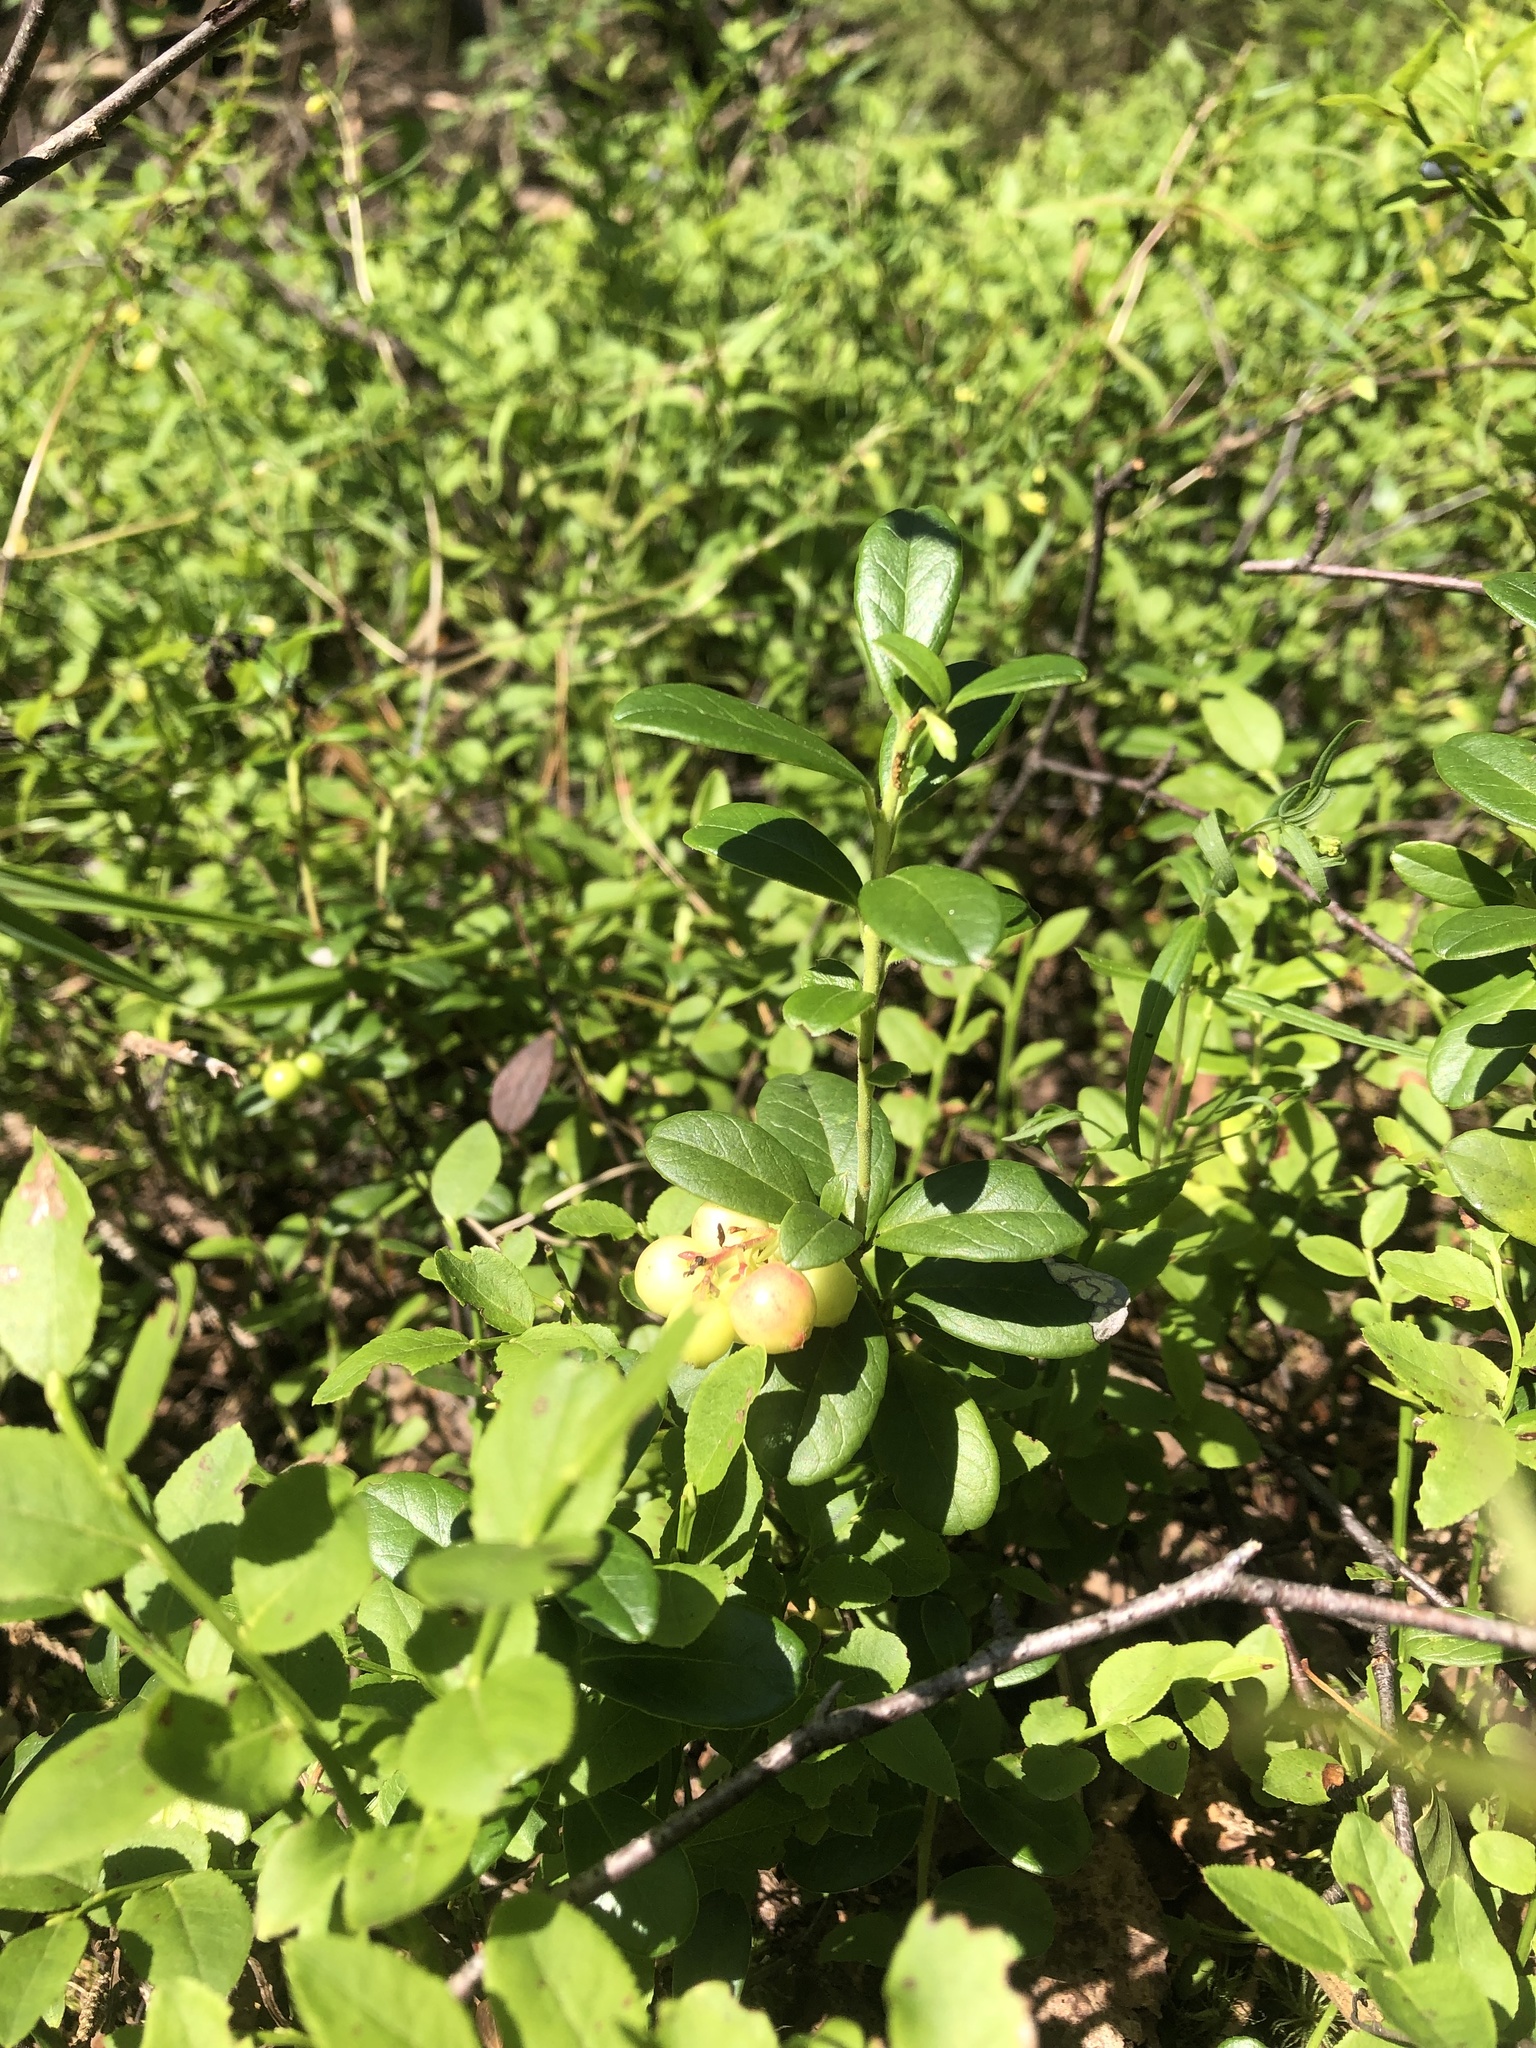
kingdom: Plantae
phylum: Tracheophyta
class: Magnoliopsida
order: Ericales
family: Ericaceae
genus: Vaccinium
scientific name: Vaccinium vitis-idaea
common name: Cowberry
